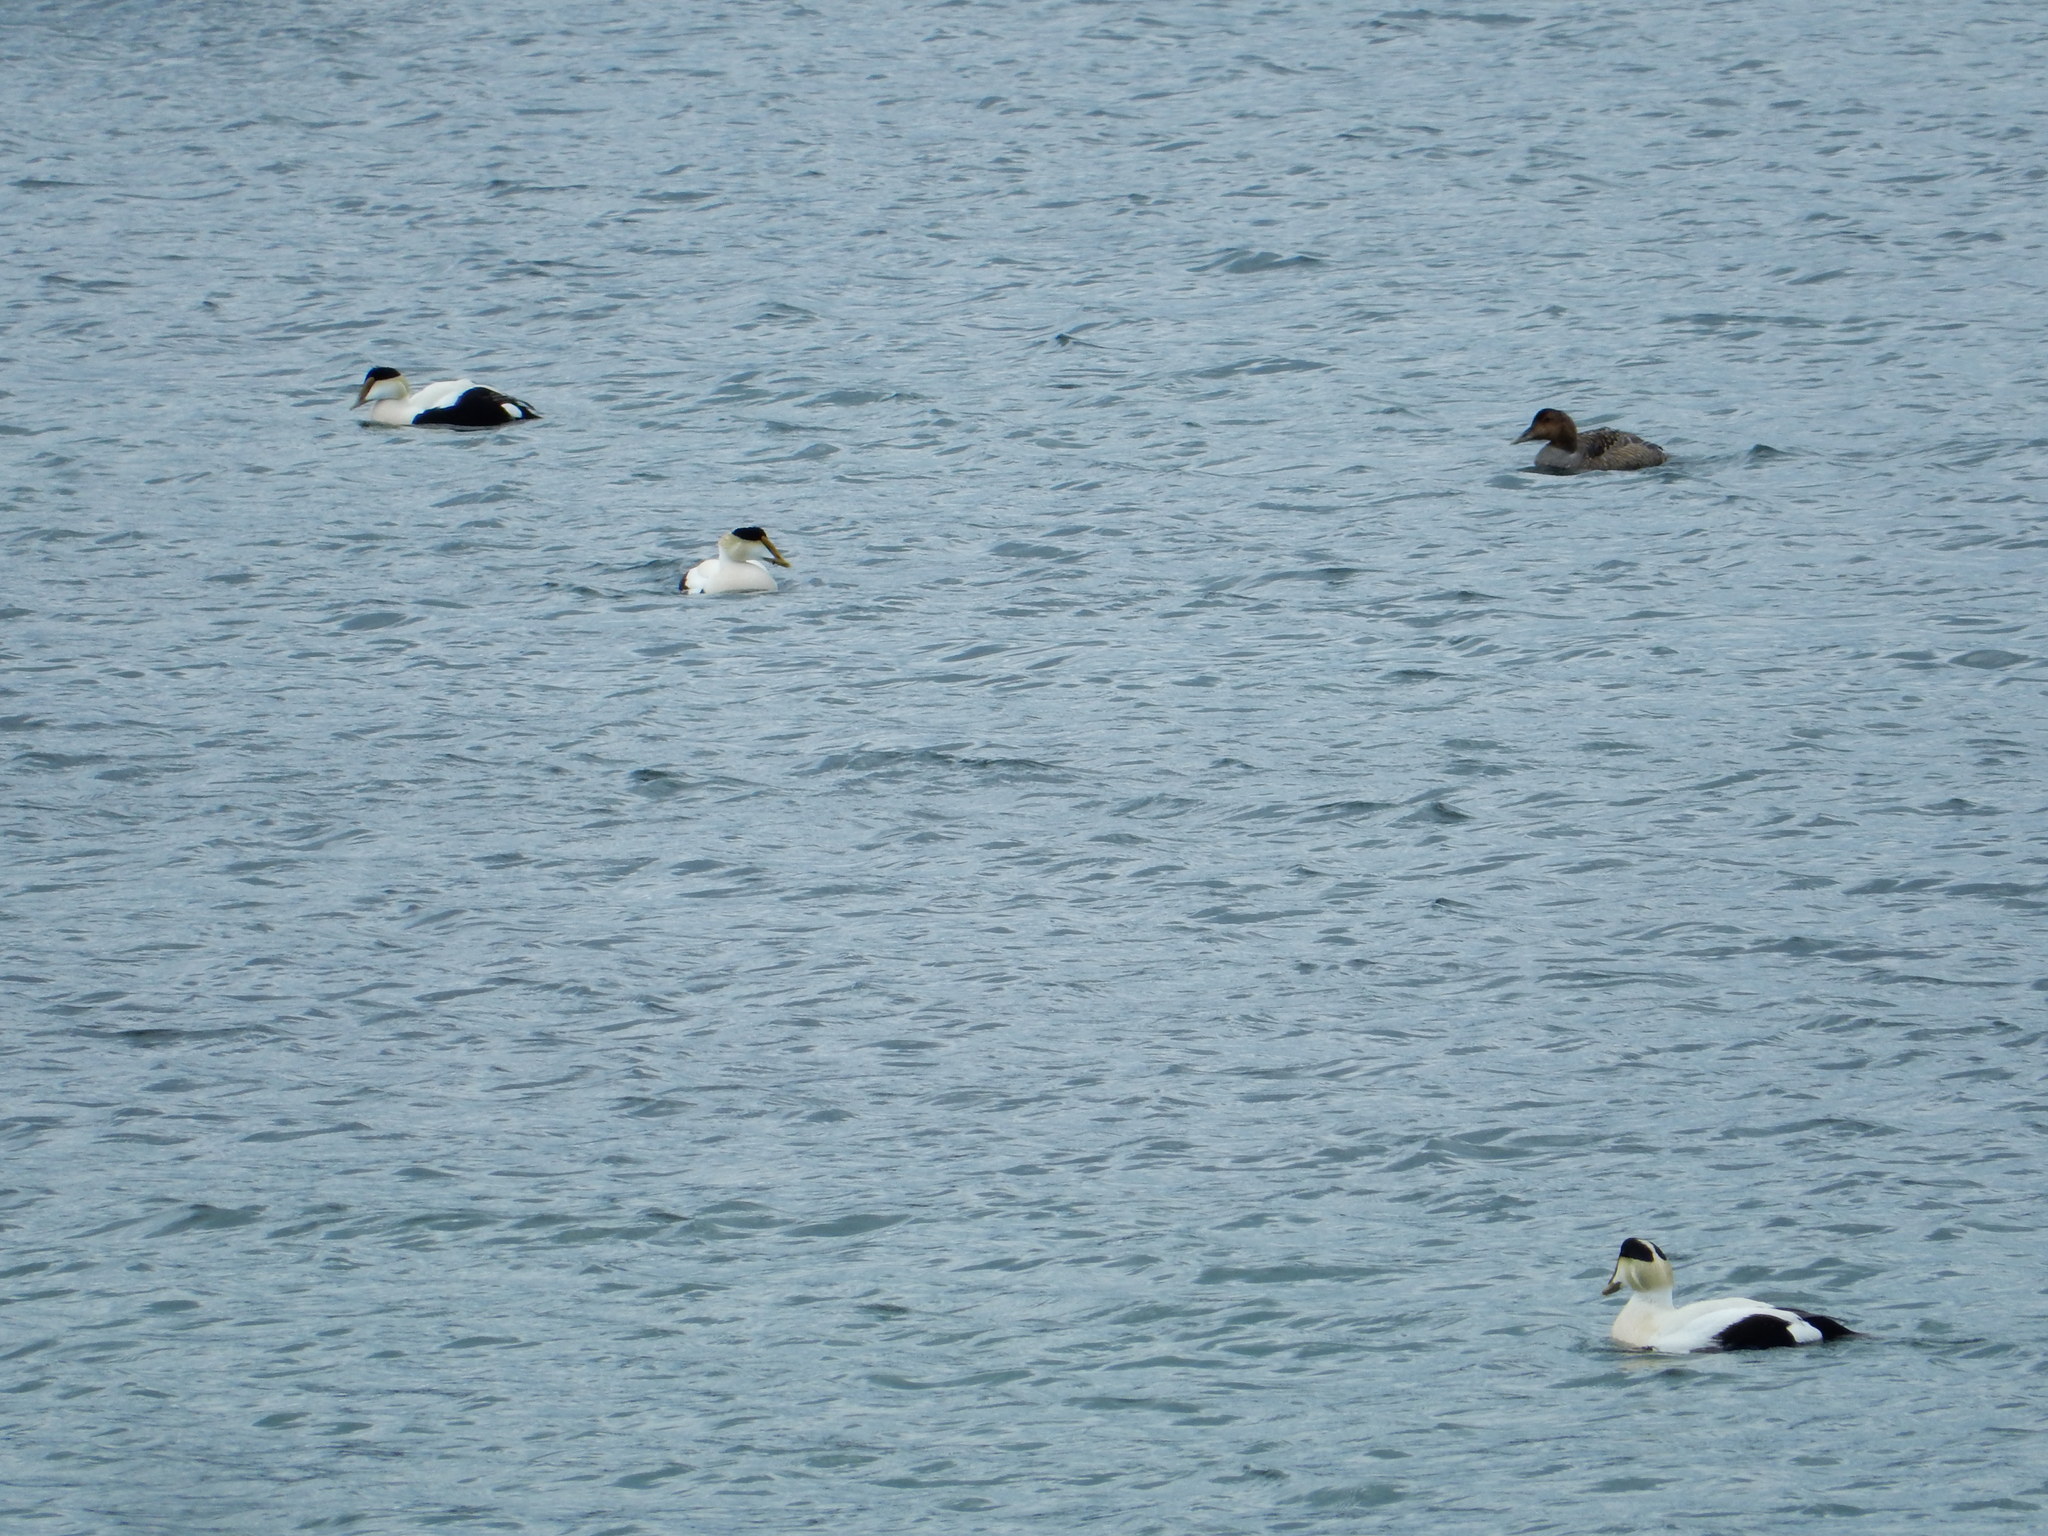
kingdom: Animalia
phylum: Chordata
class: Aves
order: Anseriformes
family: Anatidae
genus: Somateria
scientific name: Somateria mollissima
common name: Common eider
